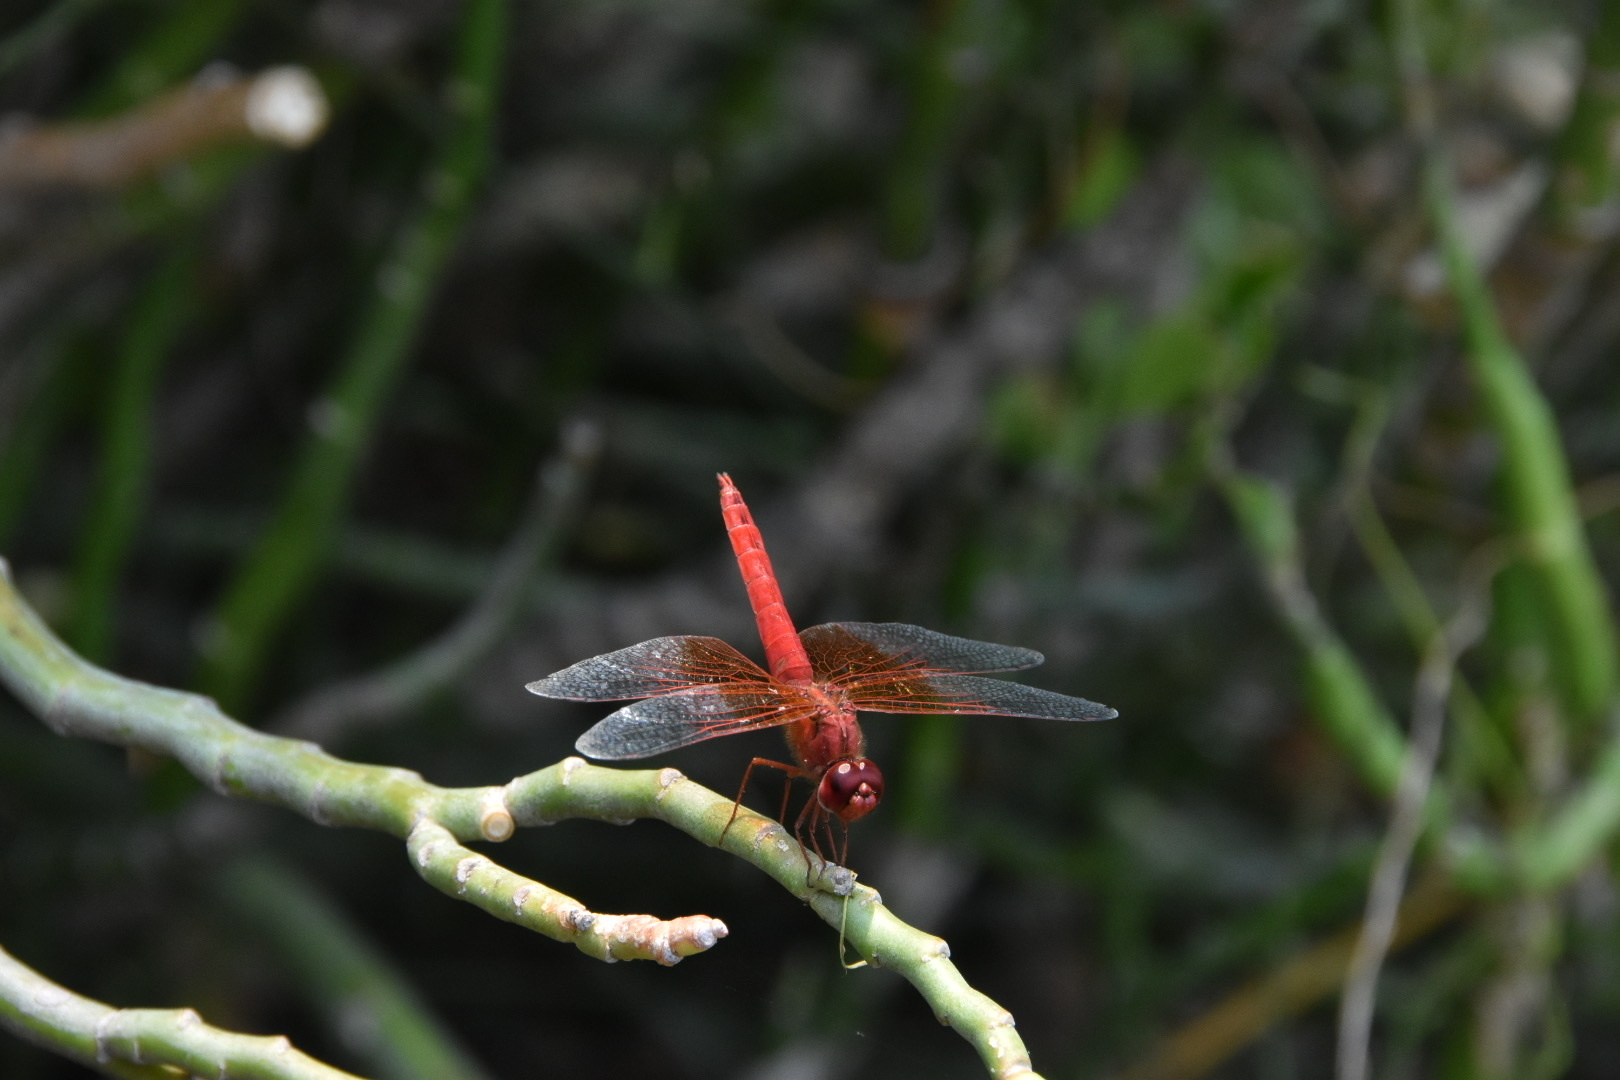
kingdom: Animalia
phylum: Arthropoda
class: Insecta
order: Odonata
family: Libellulidae
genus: Brachythemis
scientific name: Brachythemis lacustris
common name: Red groundling
